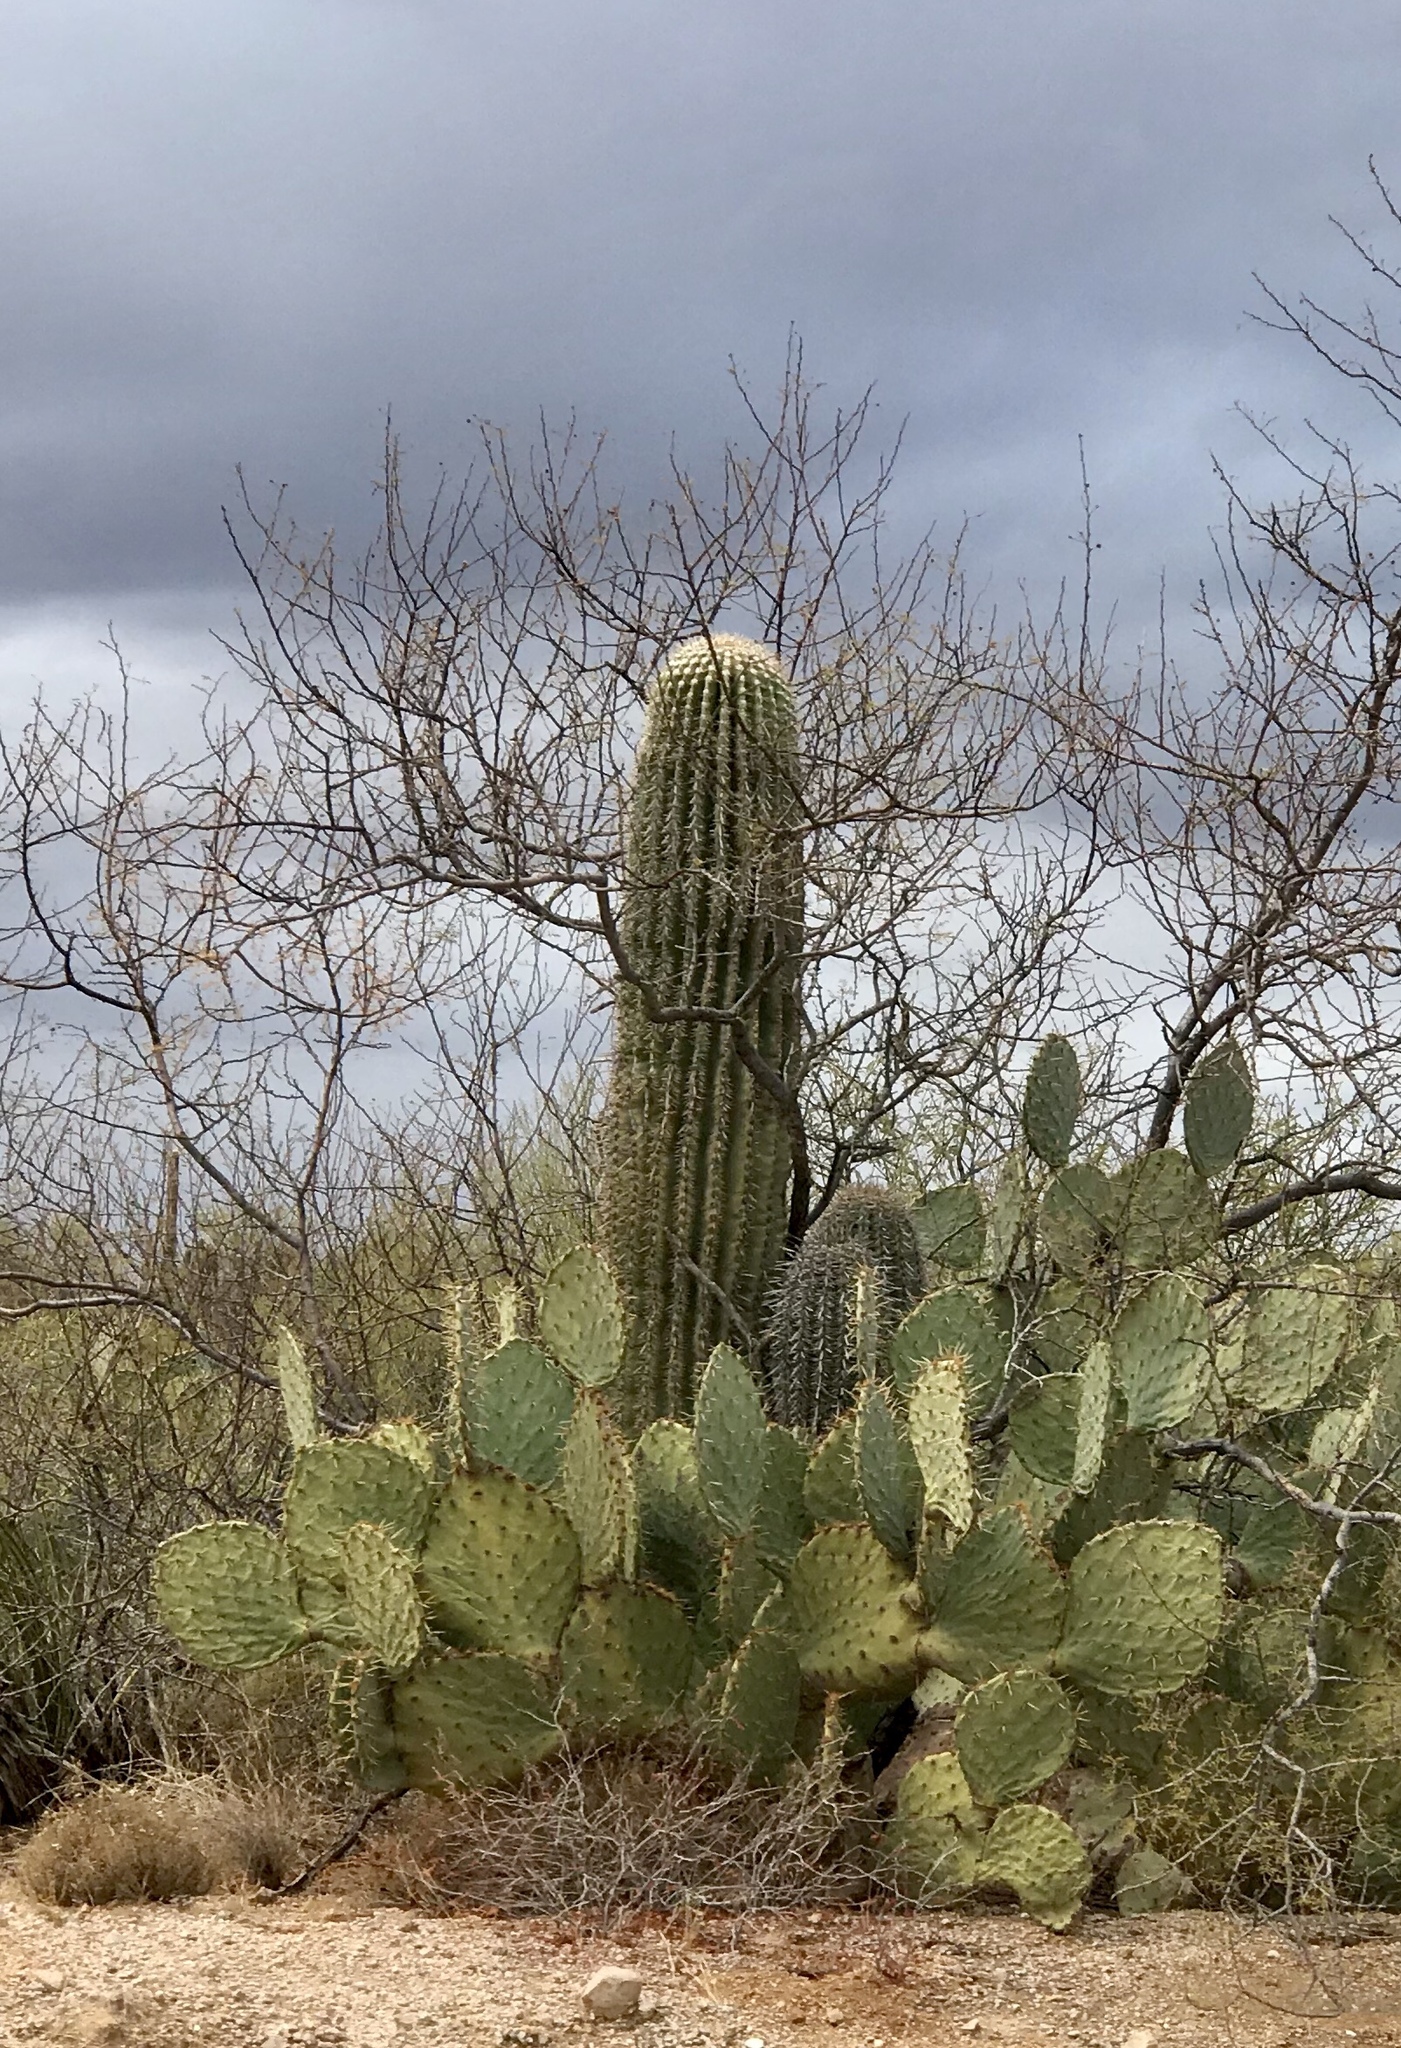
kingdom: Plantae
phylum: Tracheophyta
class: Magnoliopsida
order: Caryophyllales
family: Cactaceae
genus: Carnegiea
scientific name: Carnegiea gigantea
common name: Saguaro
